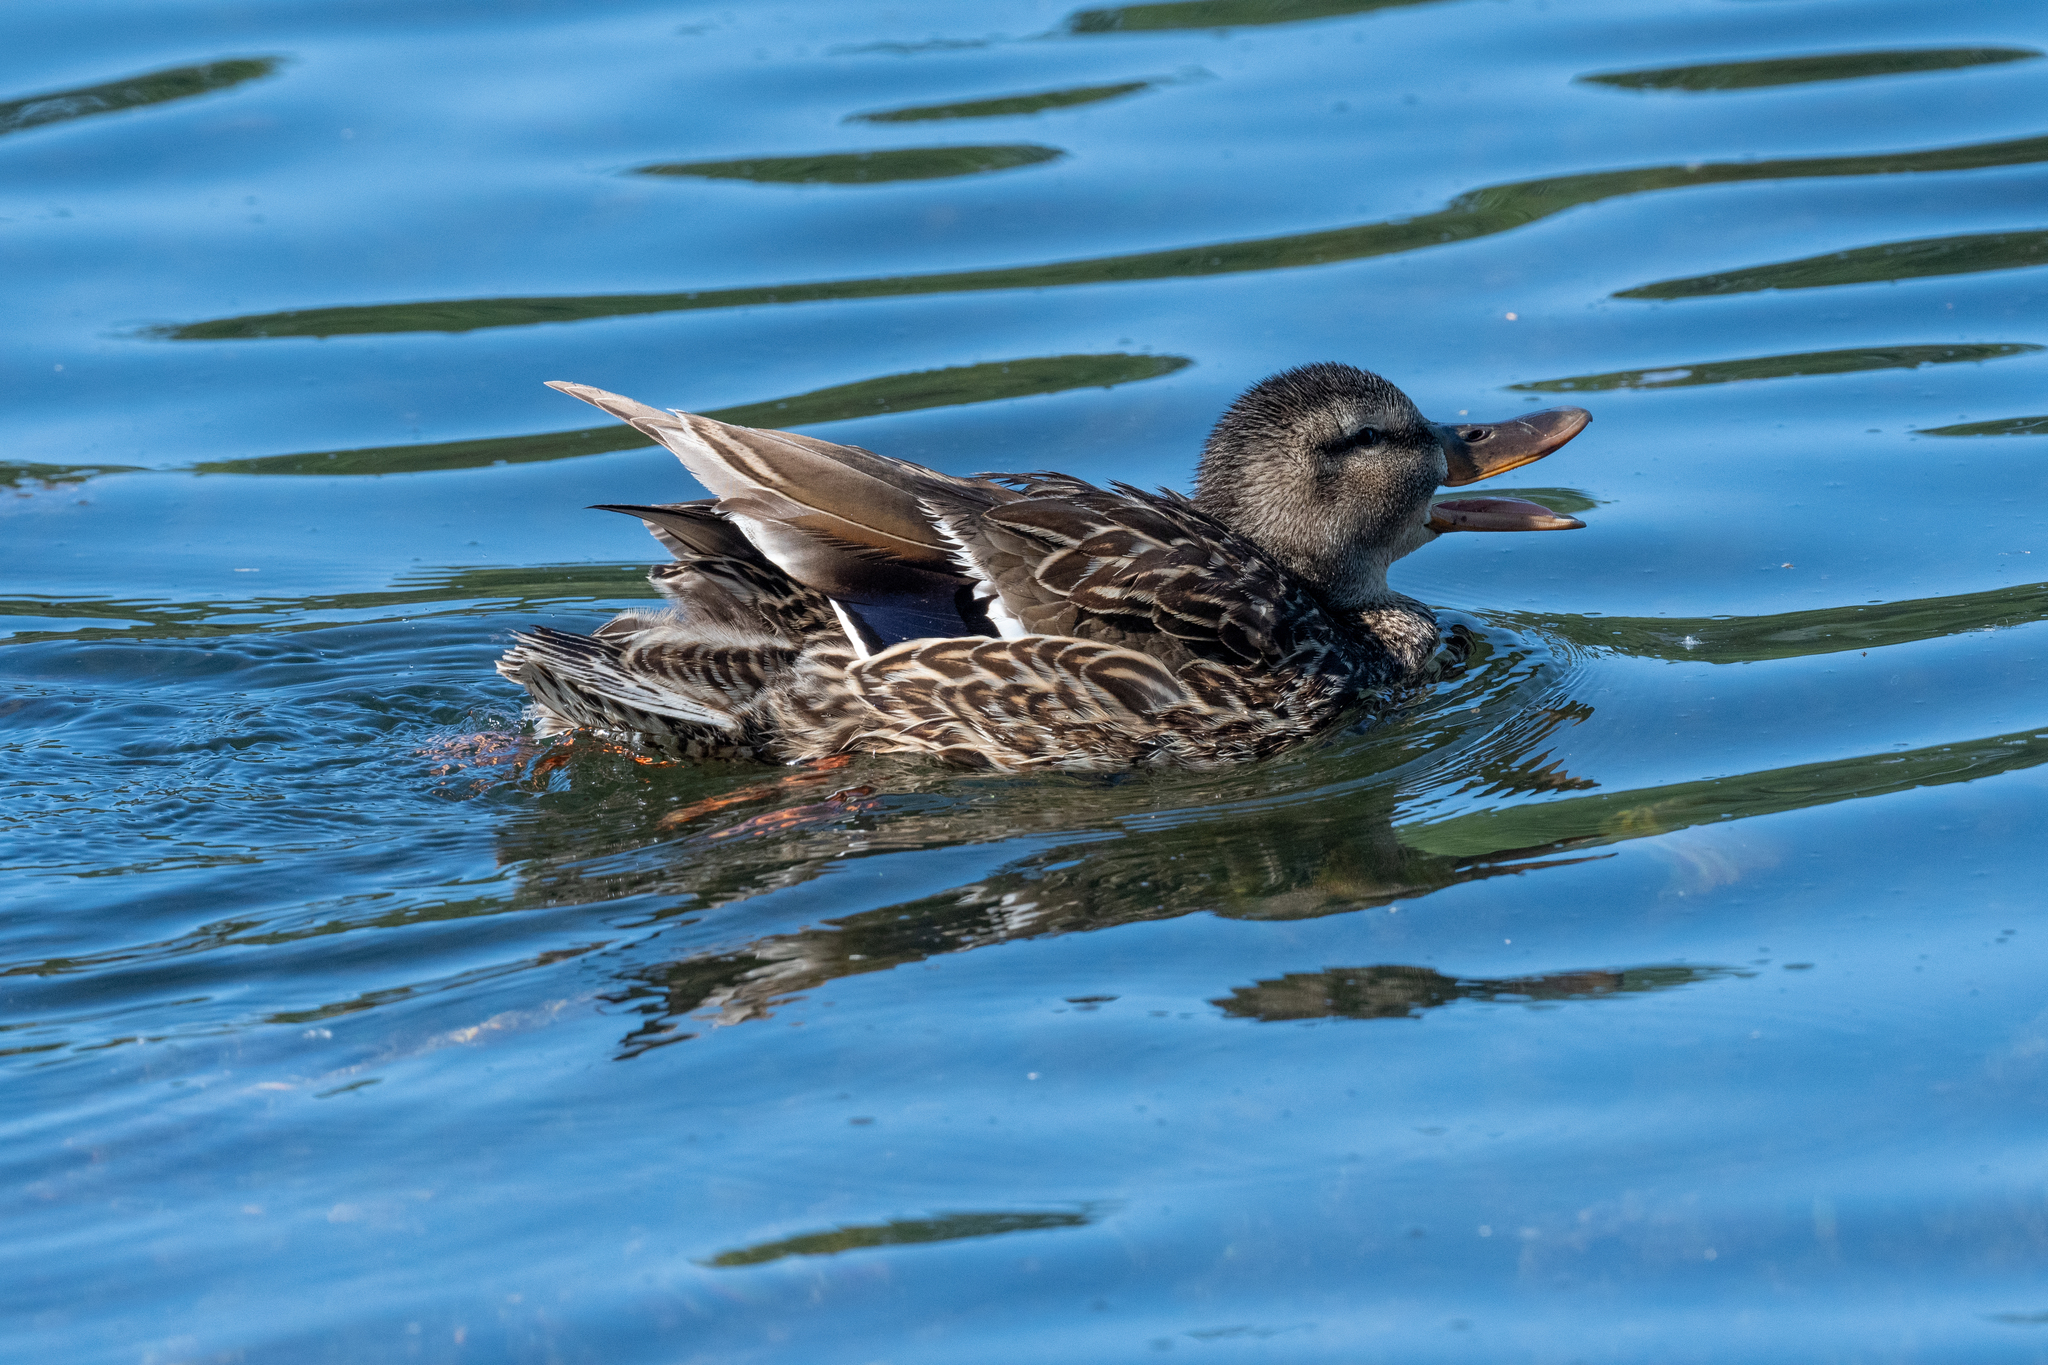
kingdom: Animalia
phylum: Chordata
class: Aves
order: Anseriformes
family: Anatidae
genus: Anas
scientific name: Anas platyrhynchos
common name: Mallard
